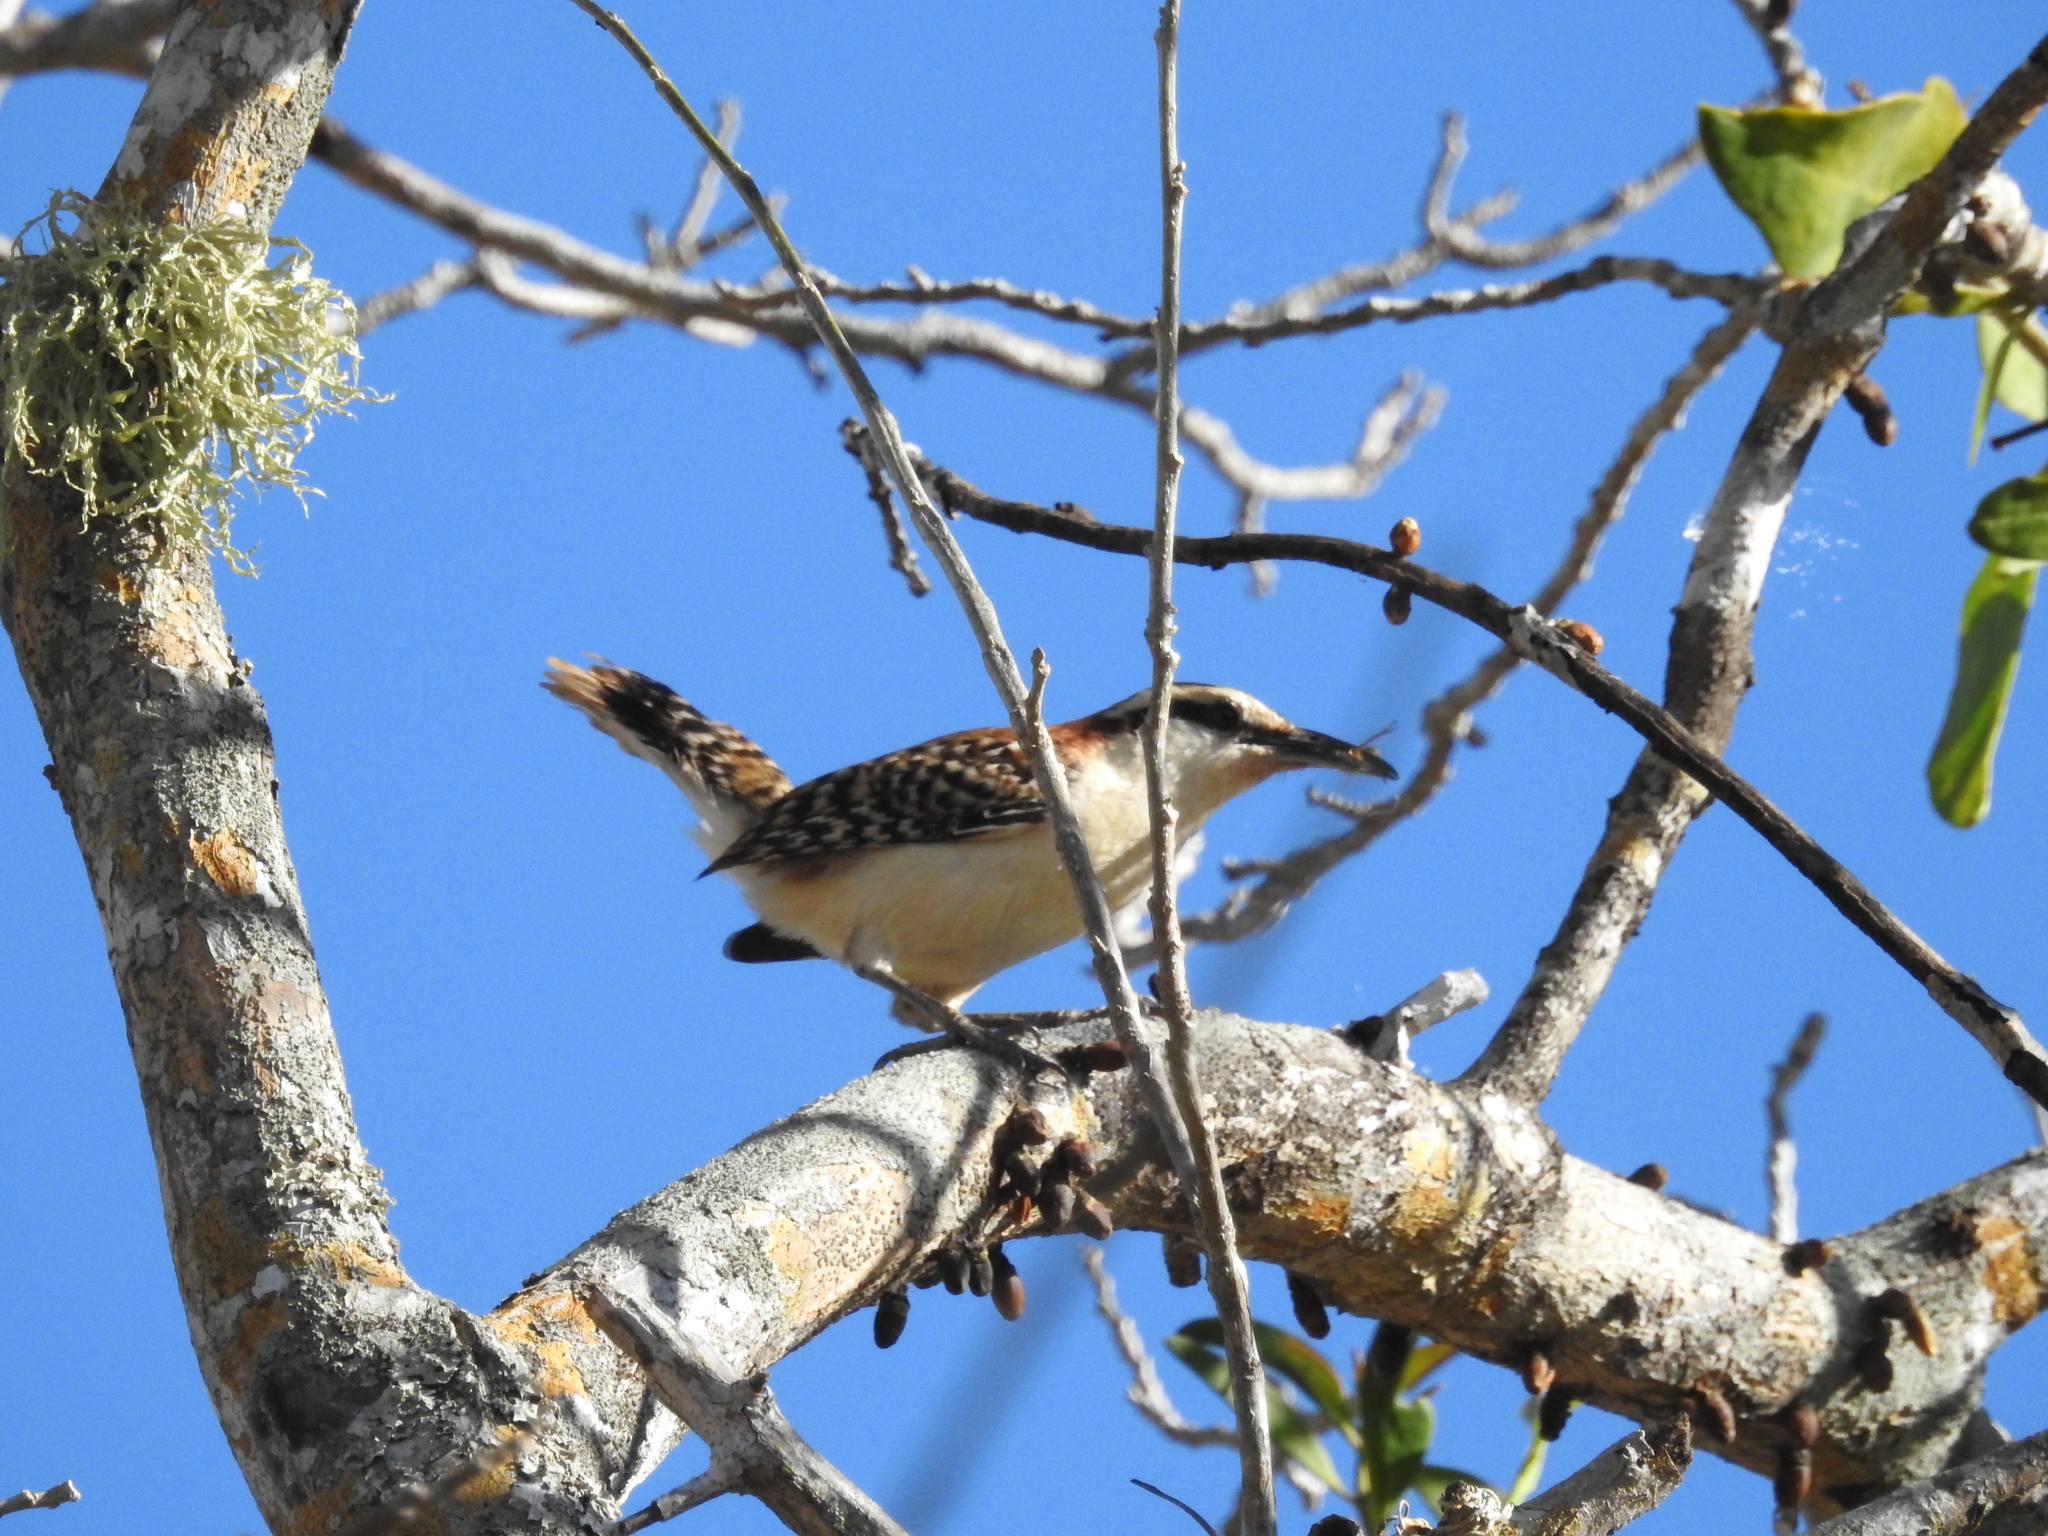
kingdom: Animalia
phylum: Chordata
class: Aves
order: Passeriformes
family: Troglodytidae
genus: Campylorhynchus
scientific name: Campylorhynchus rufinucha
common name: Rufous-naped wren
